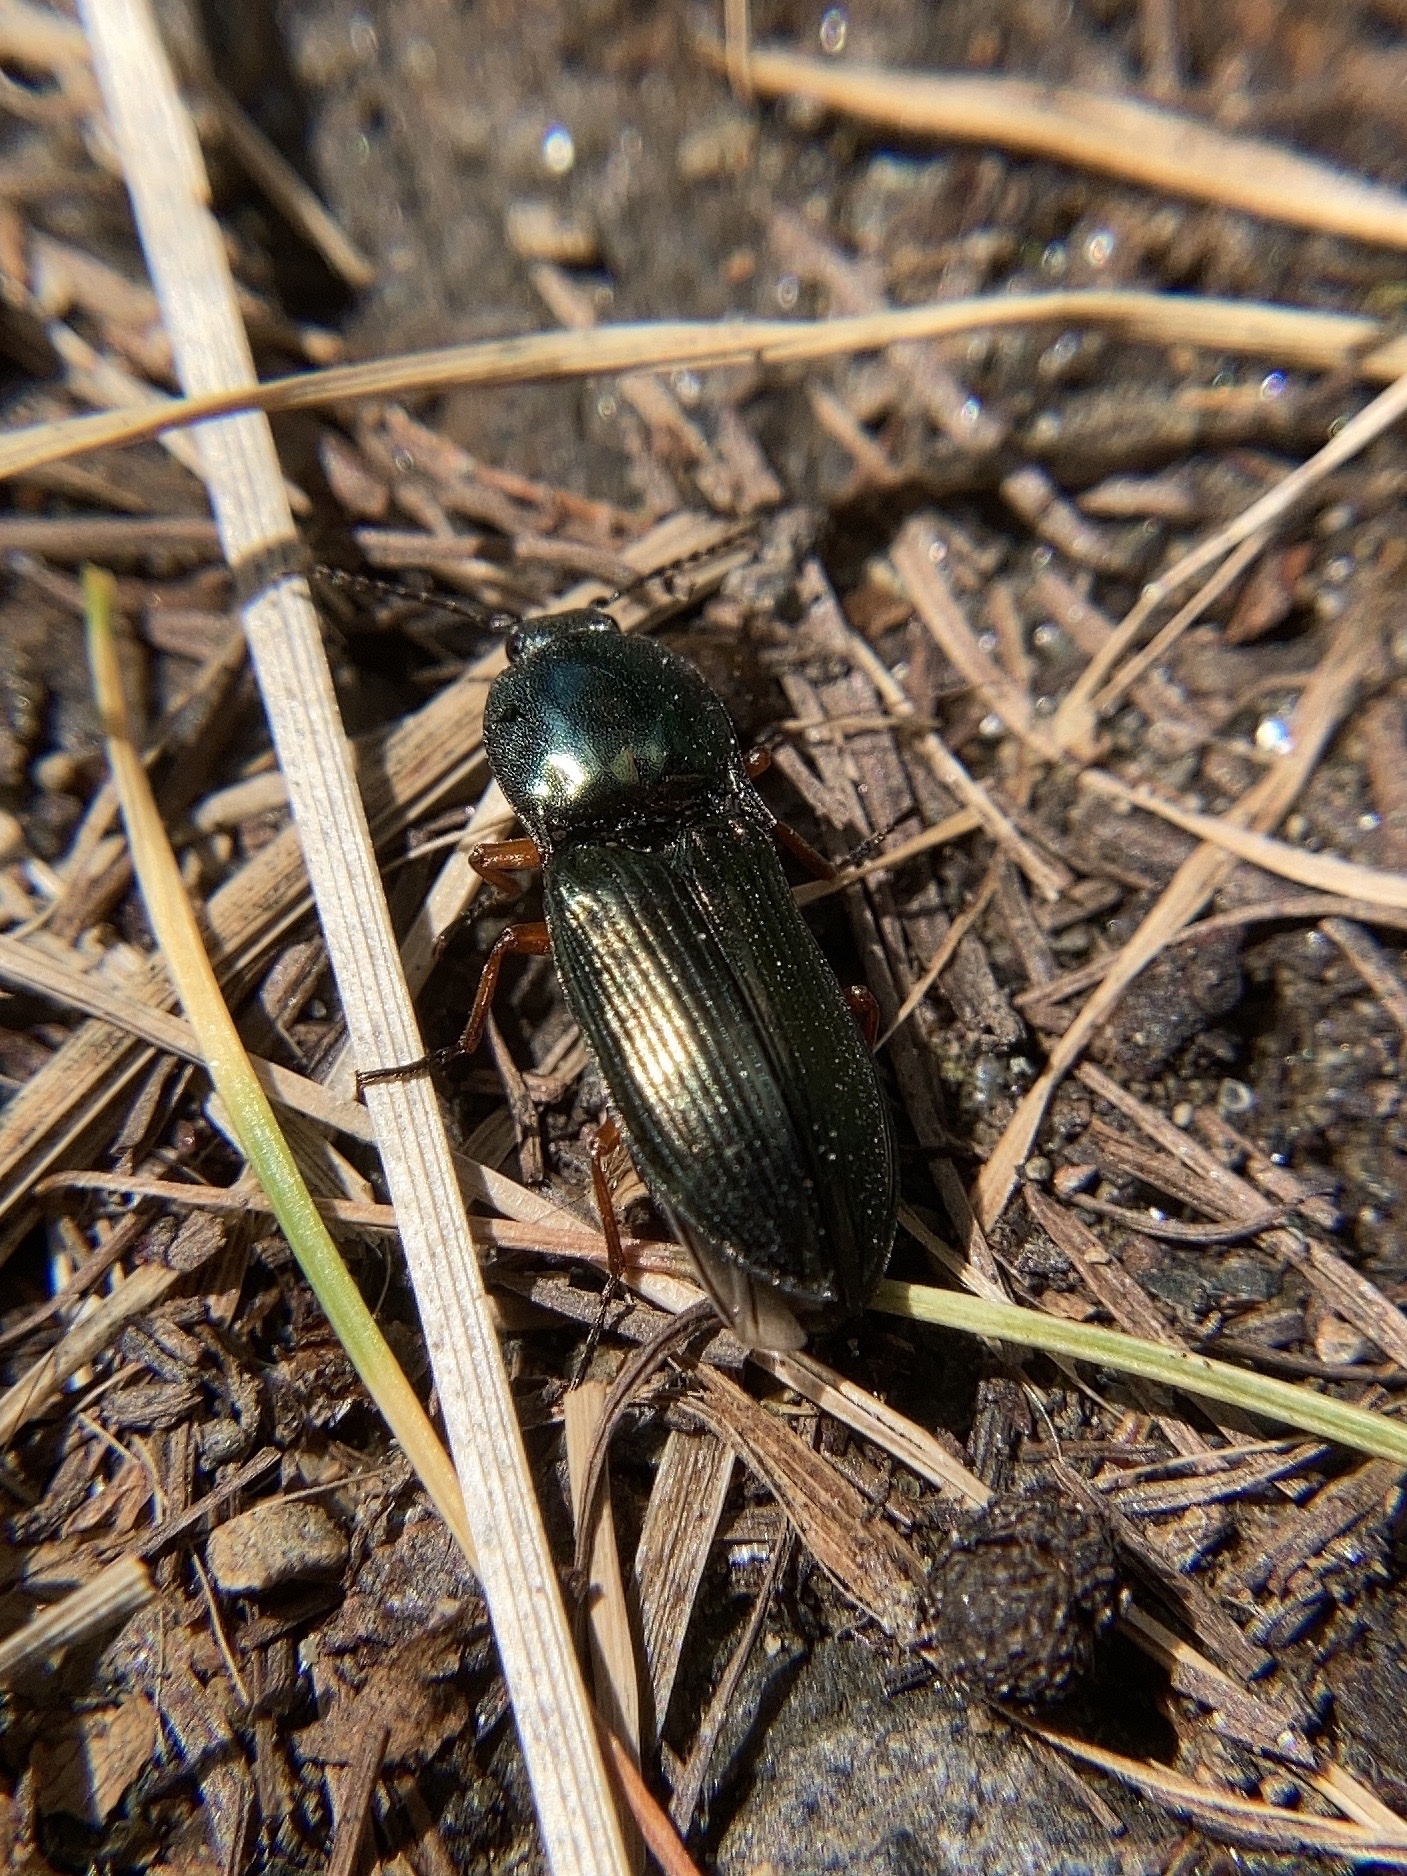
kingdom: Animalia
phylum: Arthropoda
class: Insecta
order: Coleoptera
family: Elateridae
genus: Selatosomus
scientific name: Selatosomus aeneus
